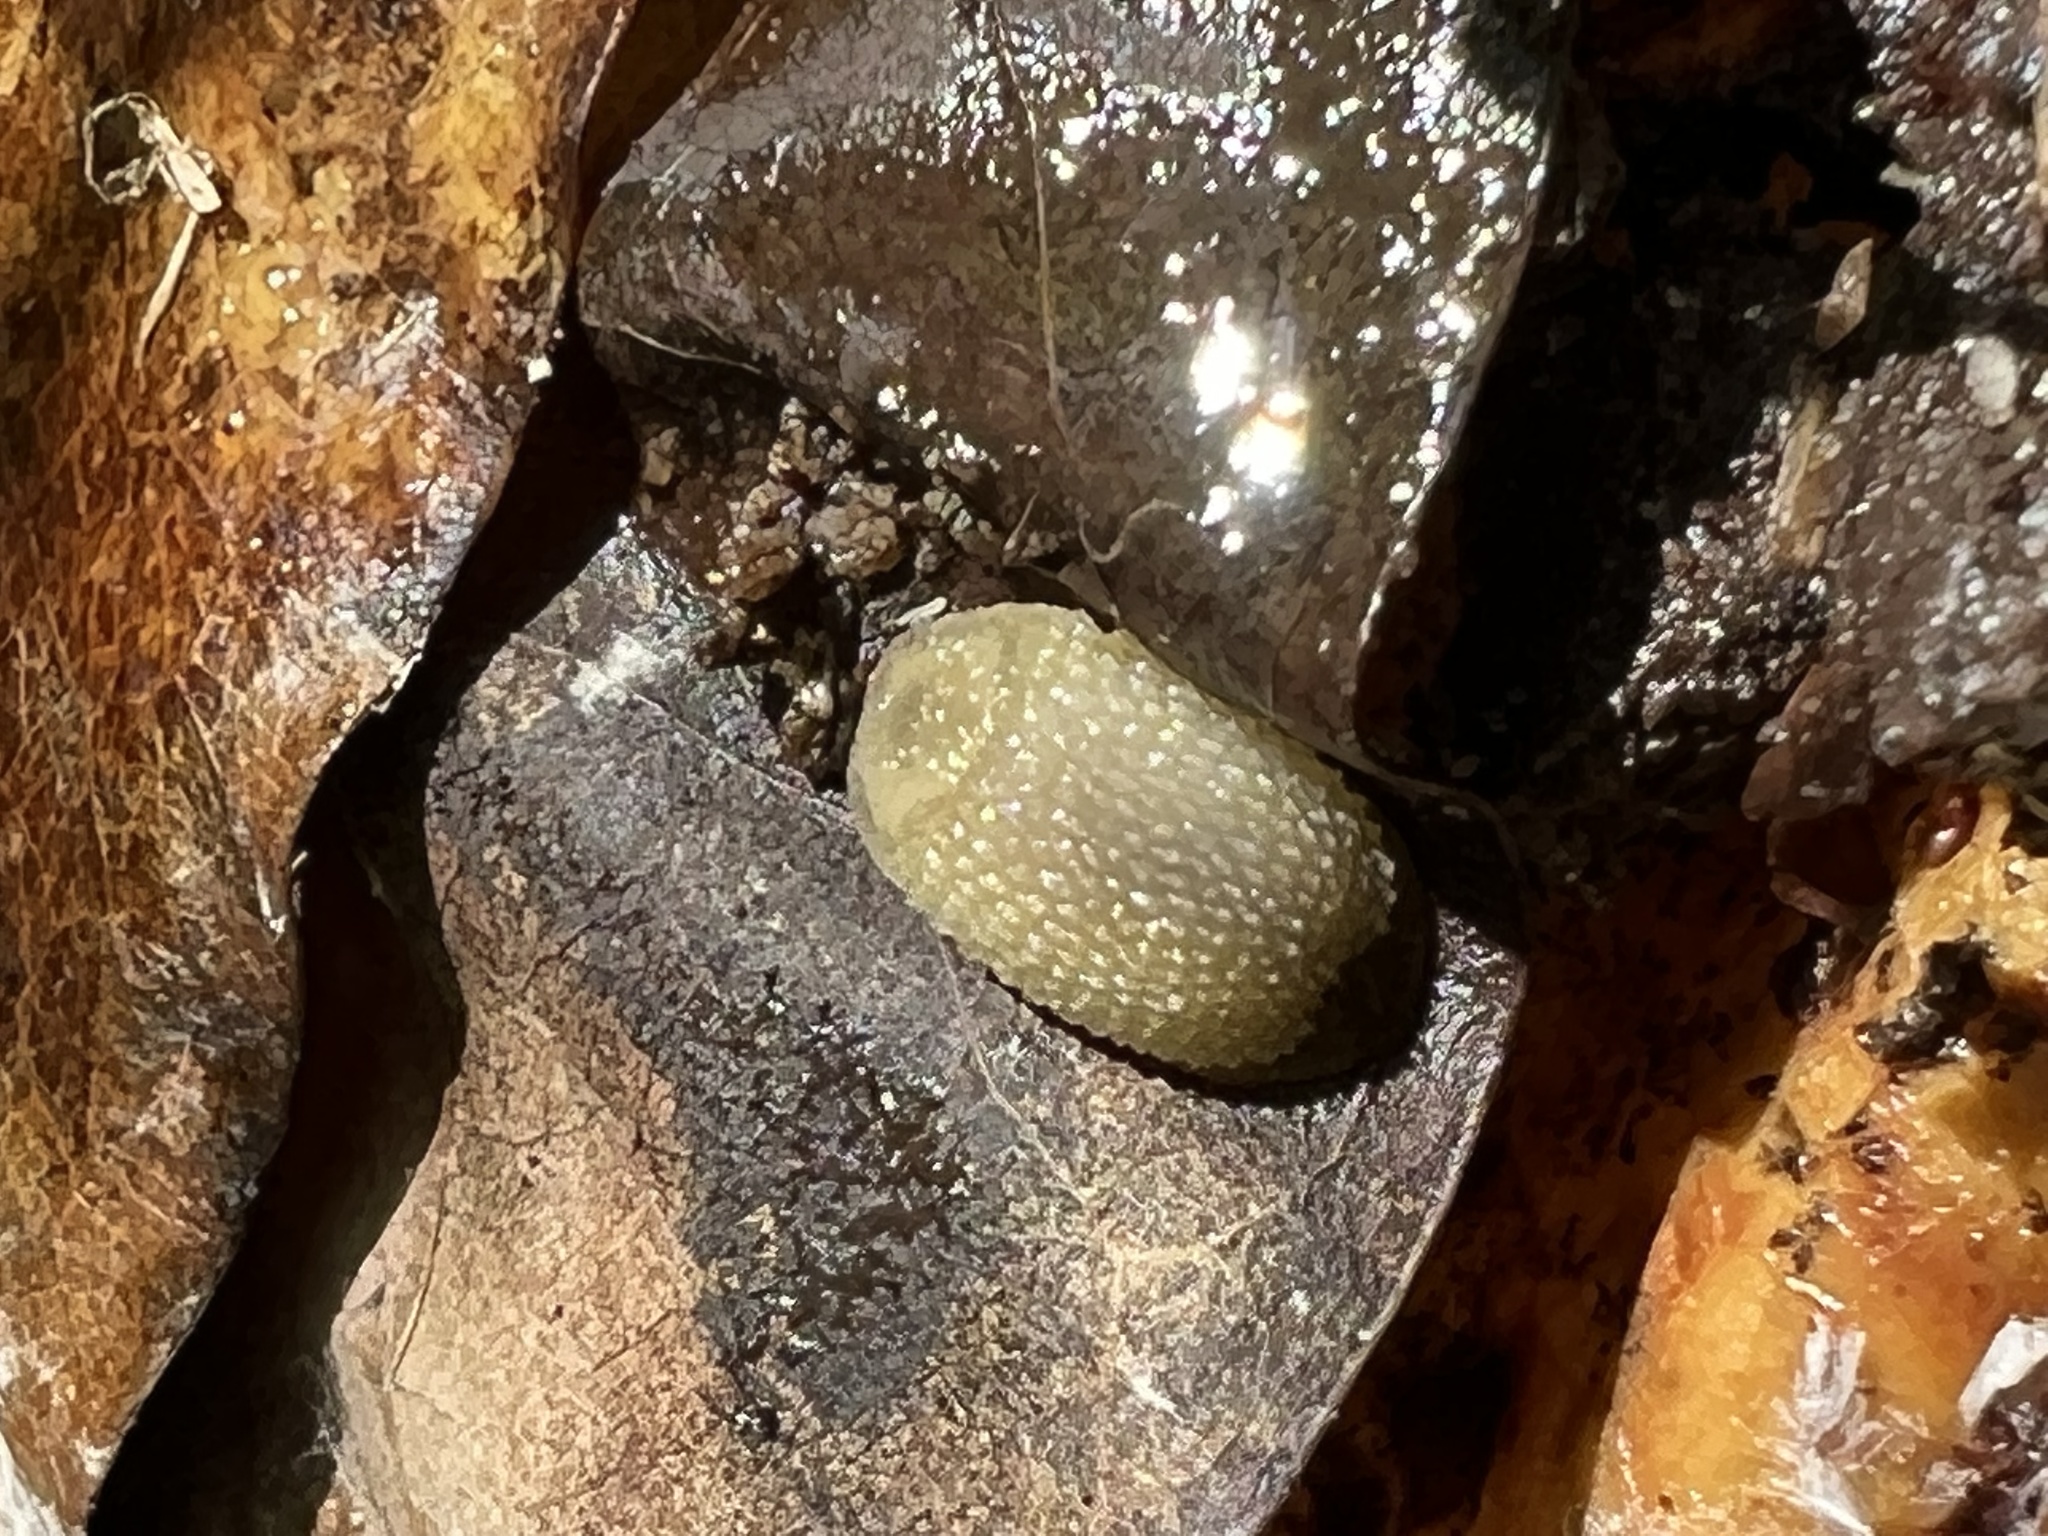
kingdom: Animalia
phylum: Mollusca
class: Gastropoda
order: Stylommatophora
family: Arionidae
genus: Arion
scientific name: Arion intermedius
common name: Hedgehog slug
